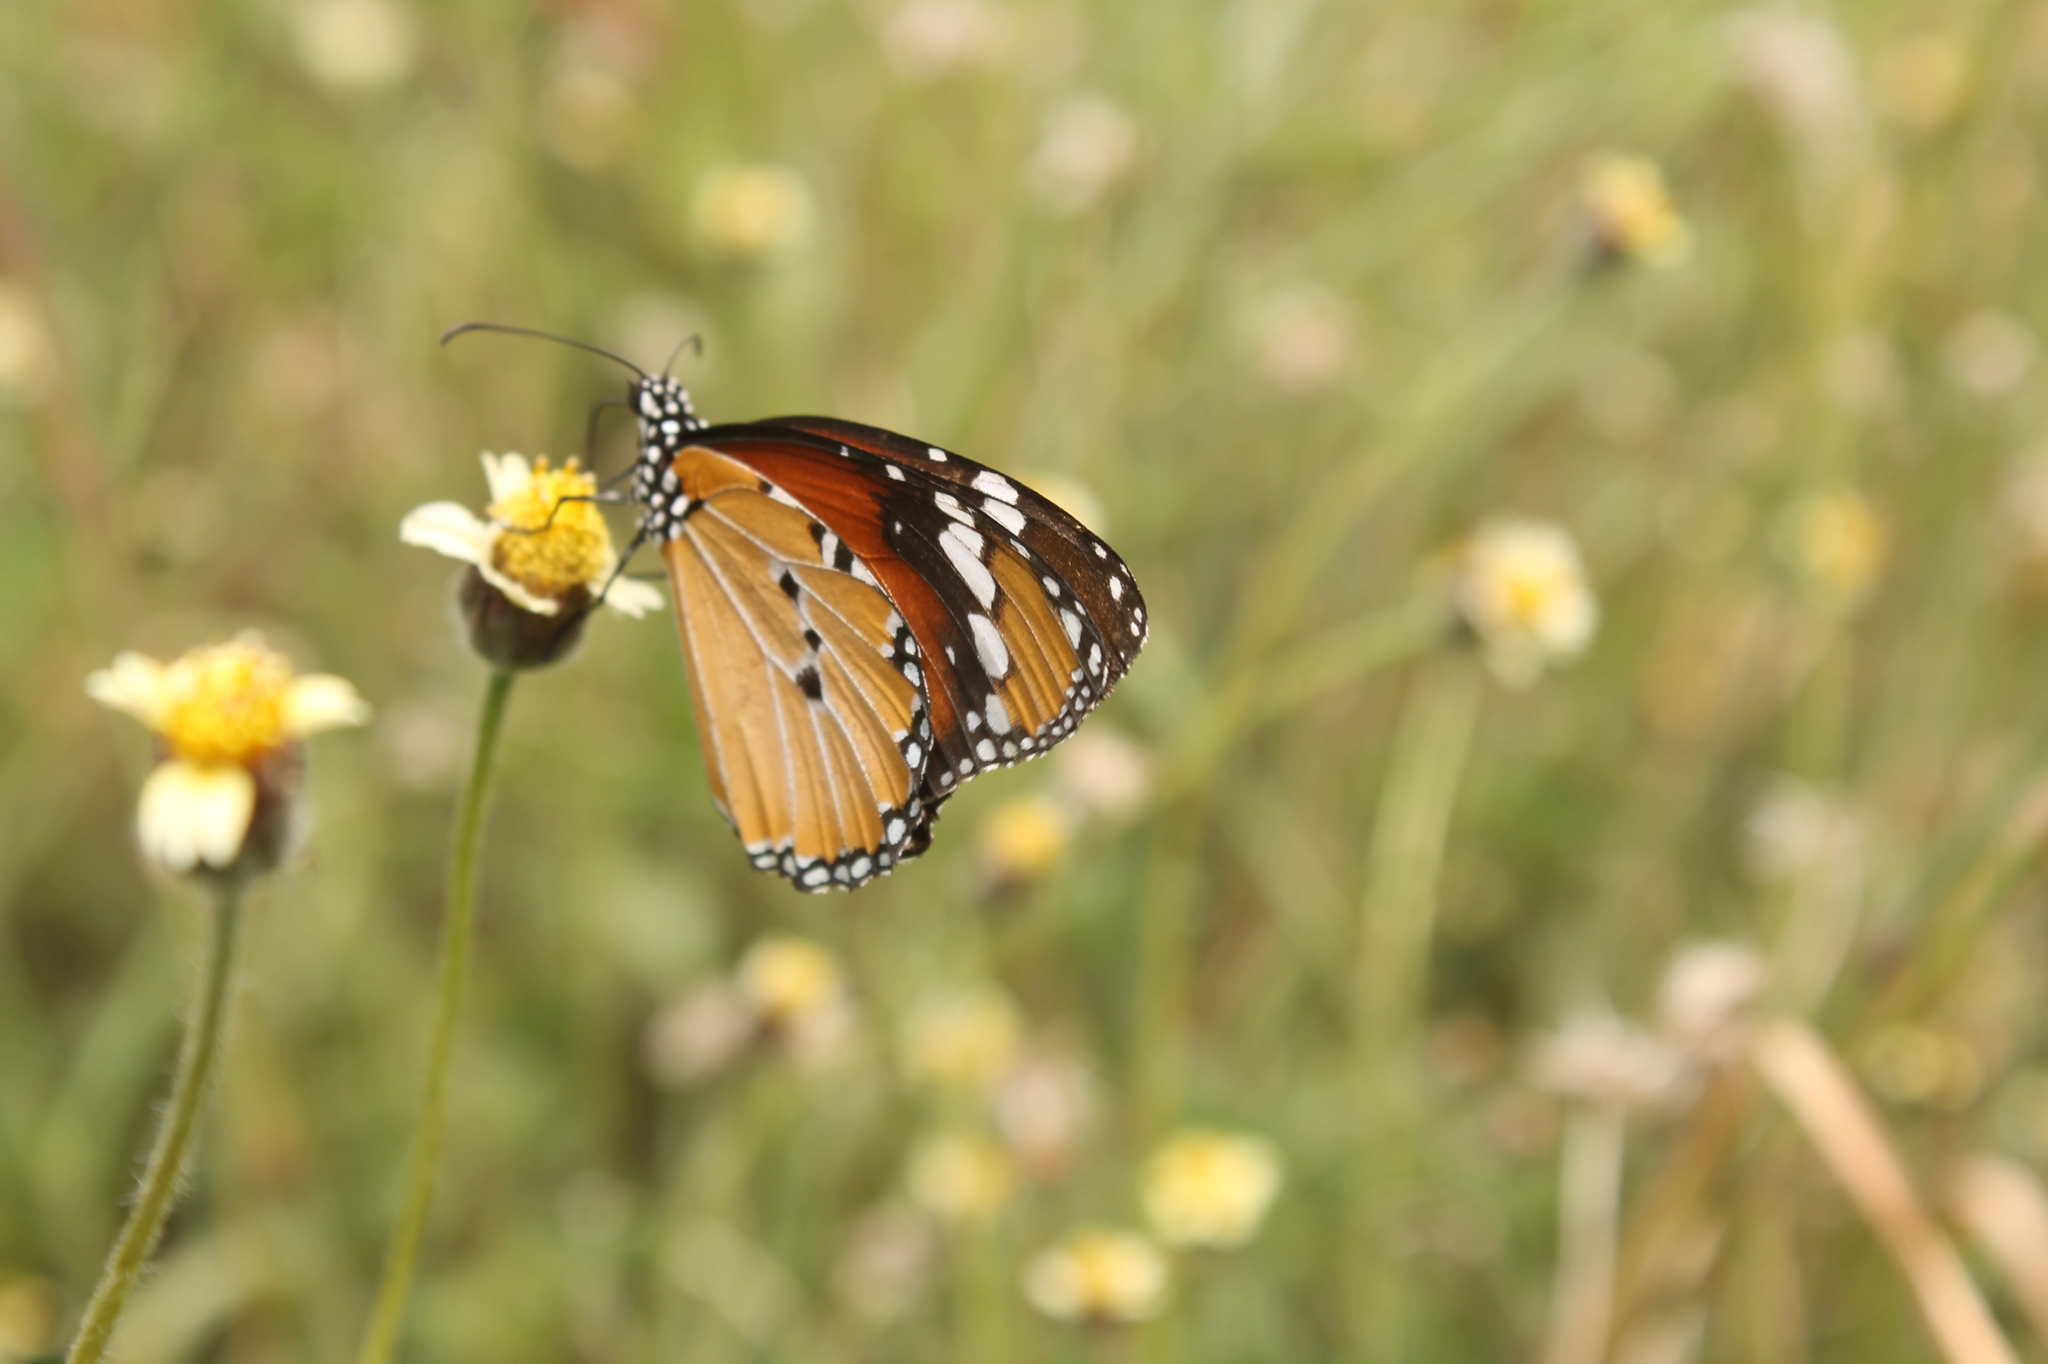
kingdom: Animalia
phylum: Arthropoda
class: Insecta
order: Lepidoptera
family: Nymphalidae
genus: Danaus
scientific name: Danaus chrysippus
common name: Plain tiger
